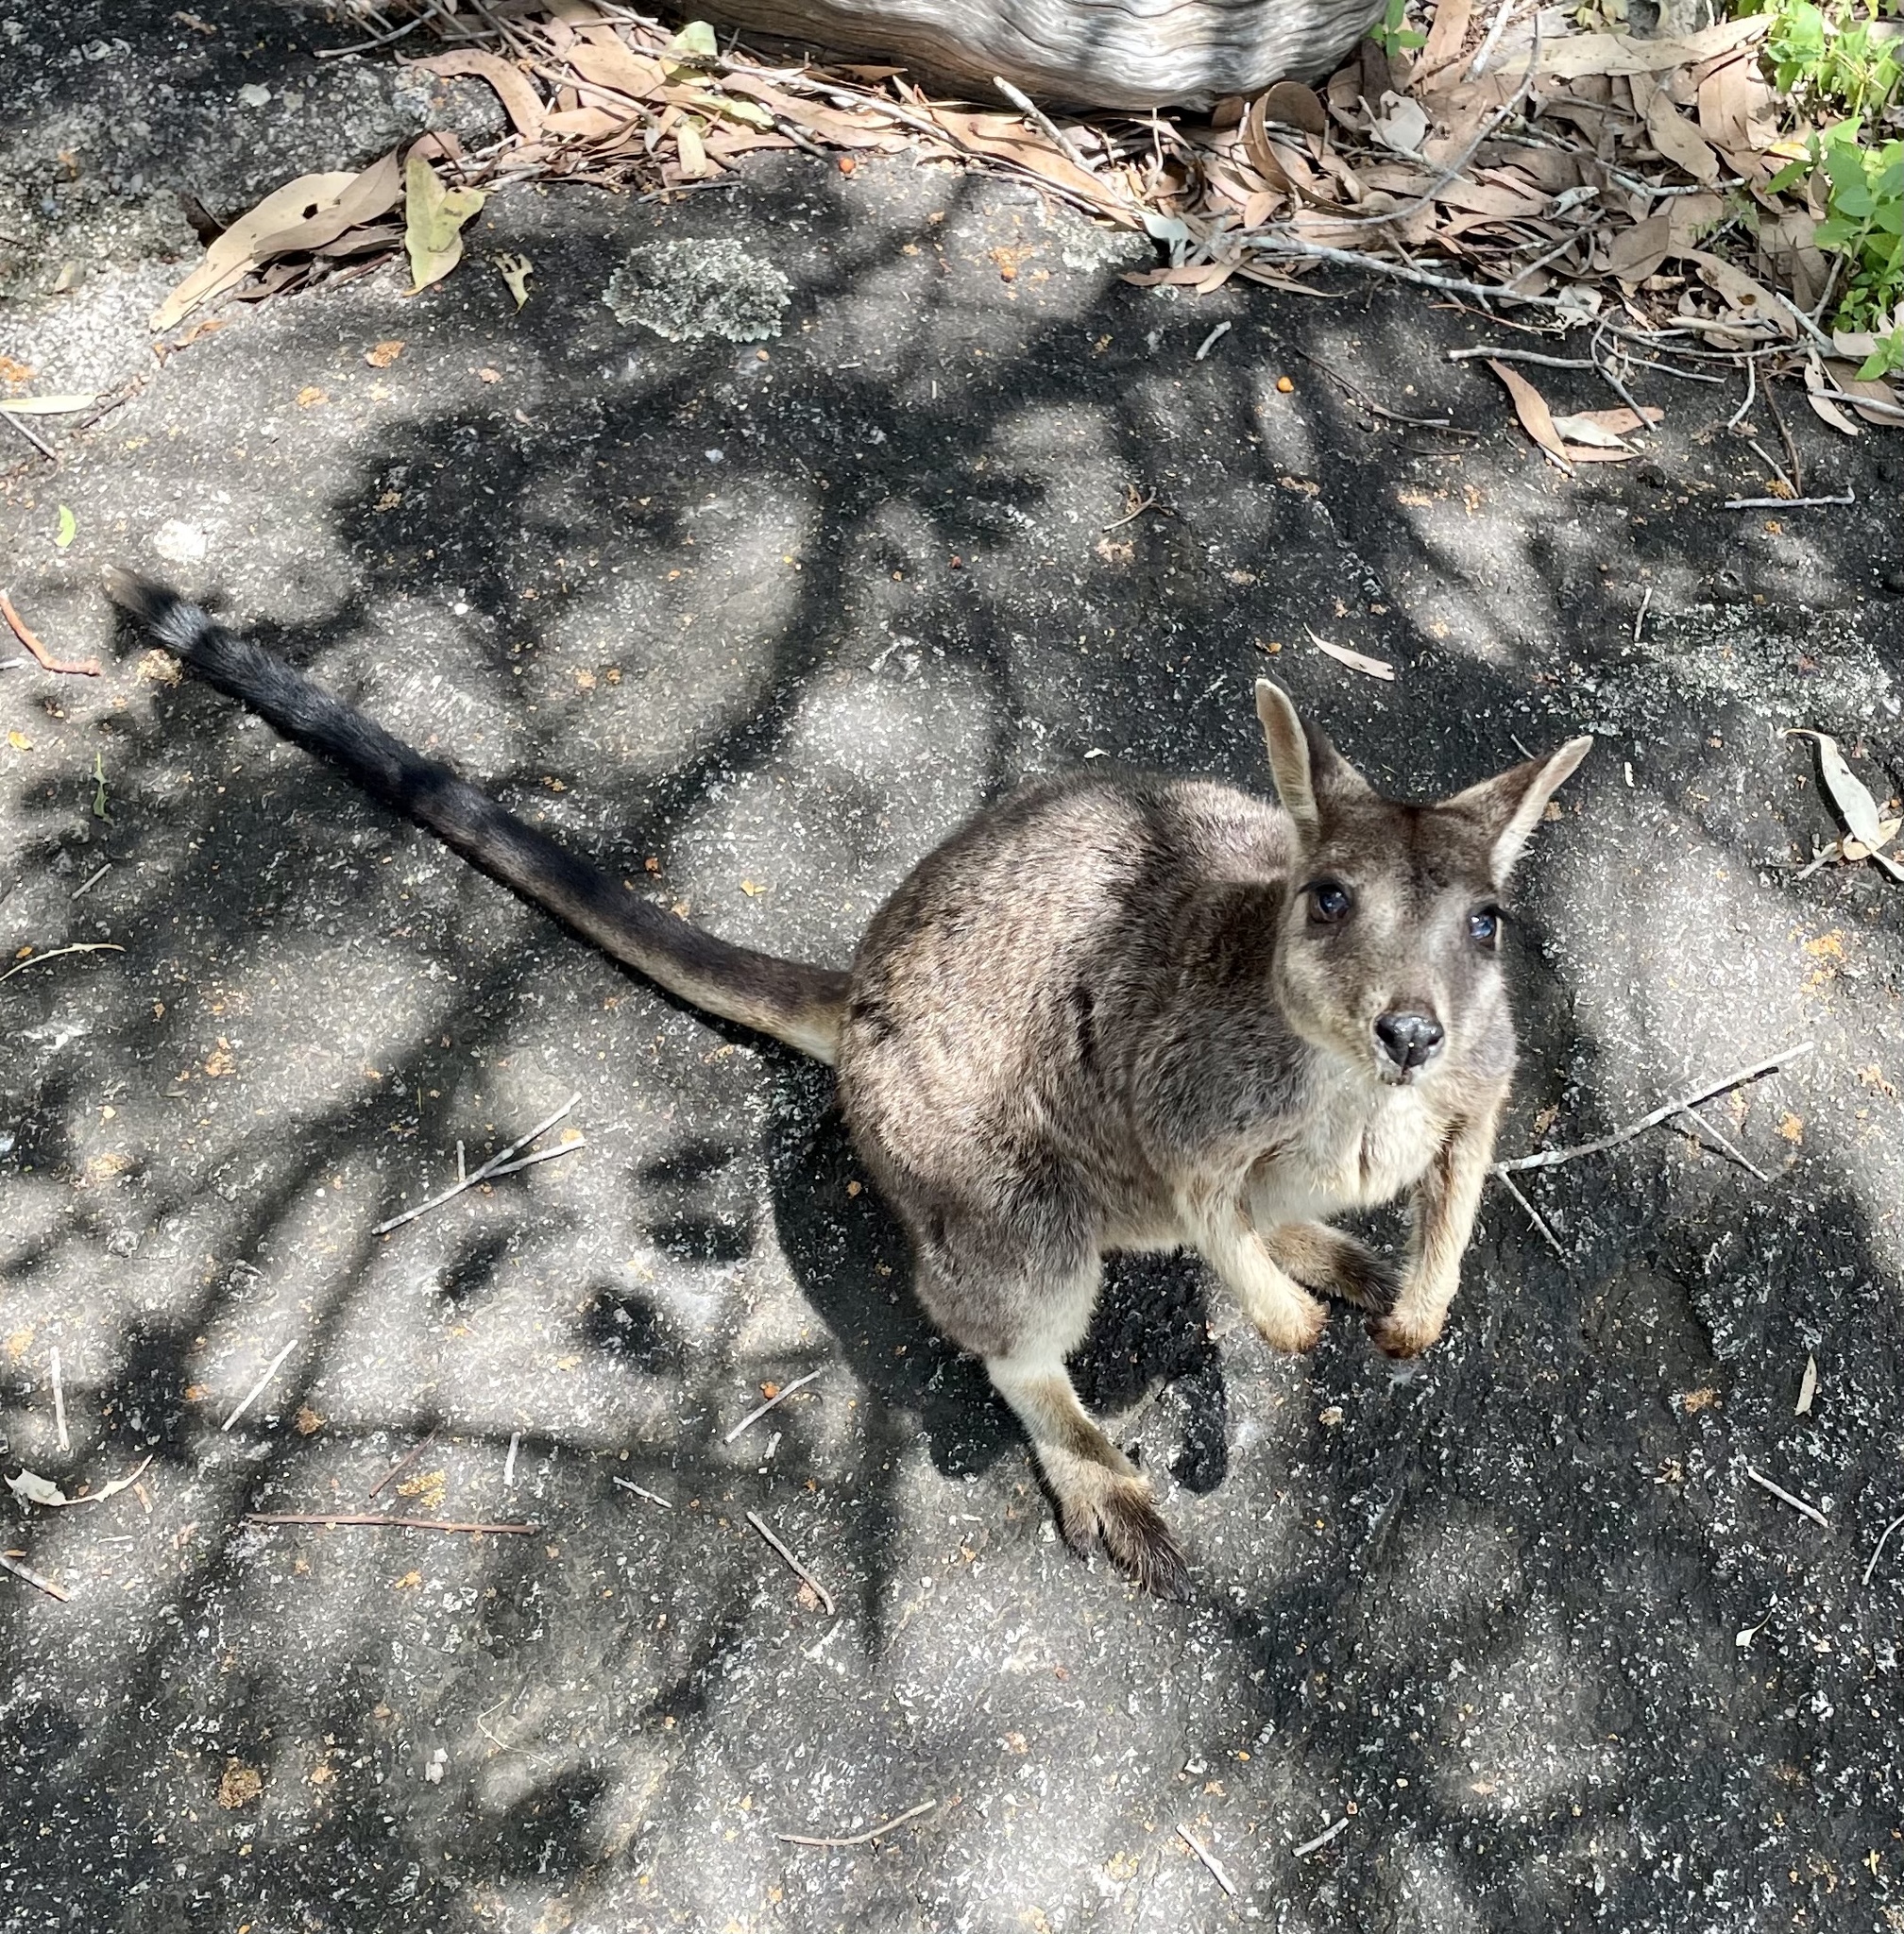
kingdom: Animalia
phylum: Chordata
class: Mammalia
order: Diprotodontia
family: Macropodidae
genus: Petrogale
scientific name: Petrogale mareeba
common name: Mareeba rock-wallaby
